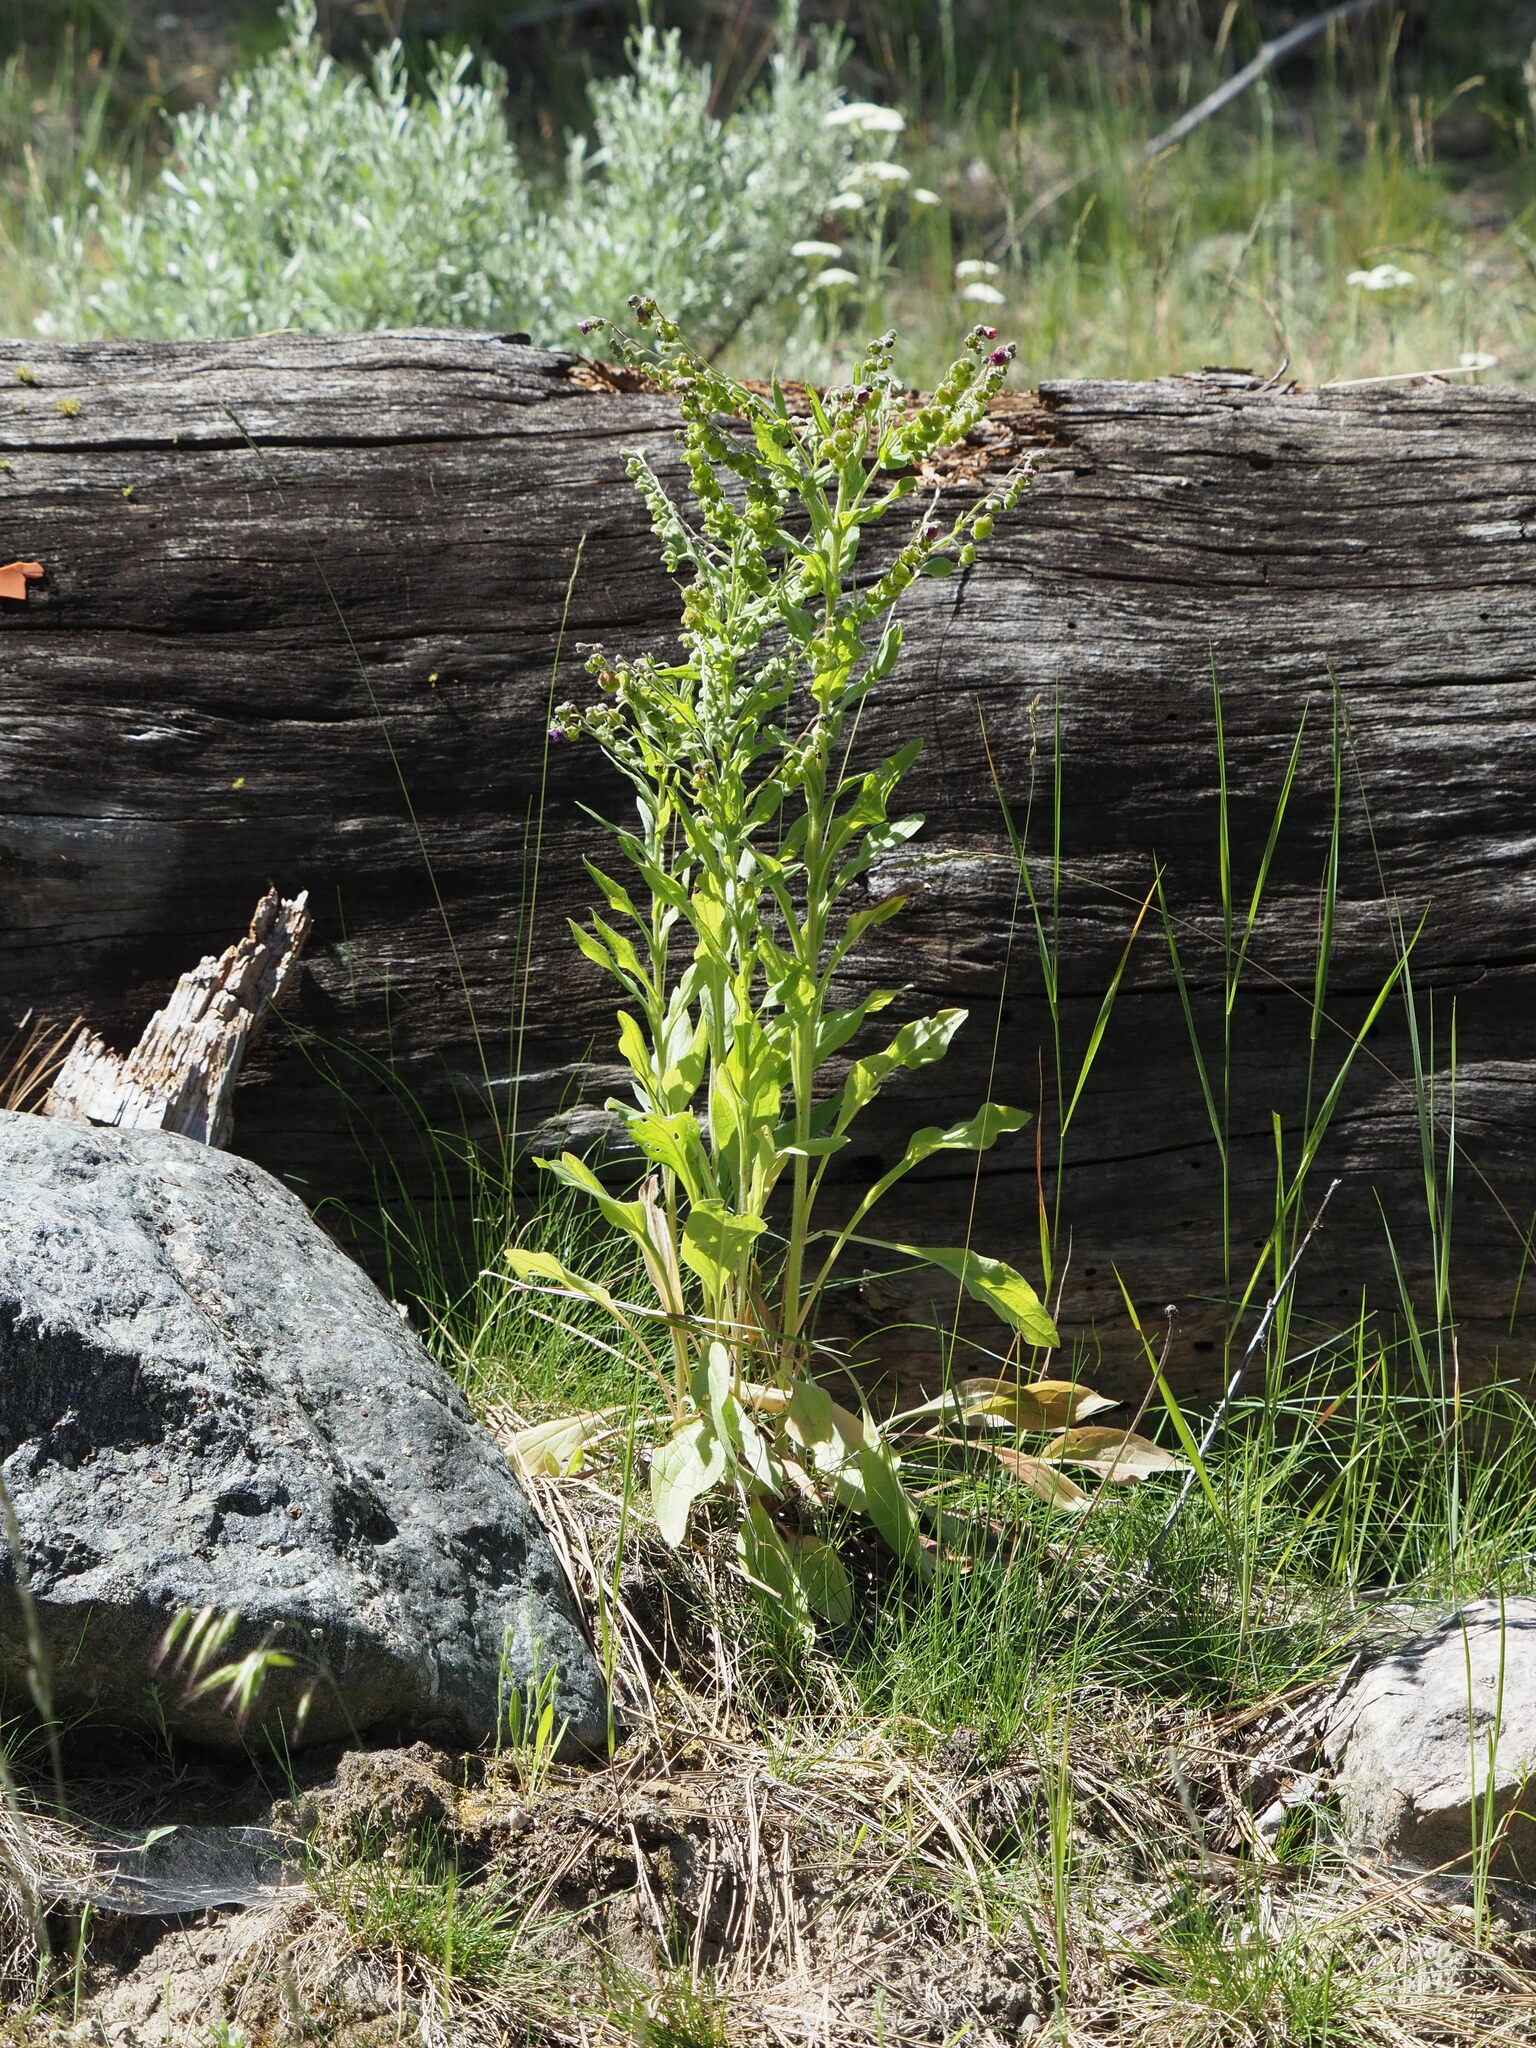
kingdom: Plantae
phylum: Tracheophyta
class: Magnoliopsida
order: Boraginales
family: Boraginaceae
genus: Cynoglossum
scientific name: Cynoglossum officinale
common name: Hound's-tongue
